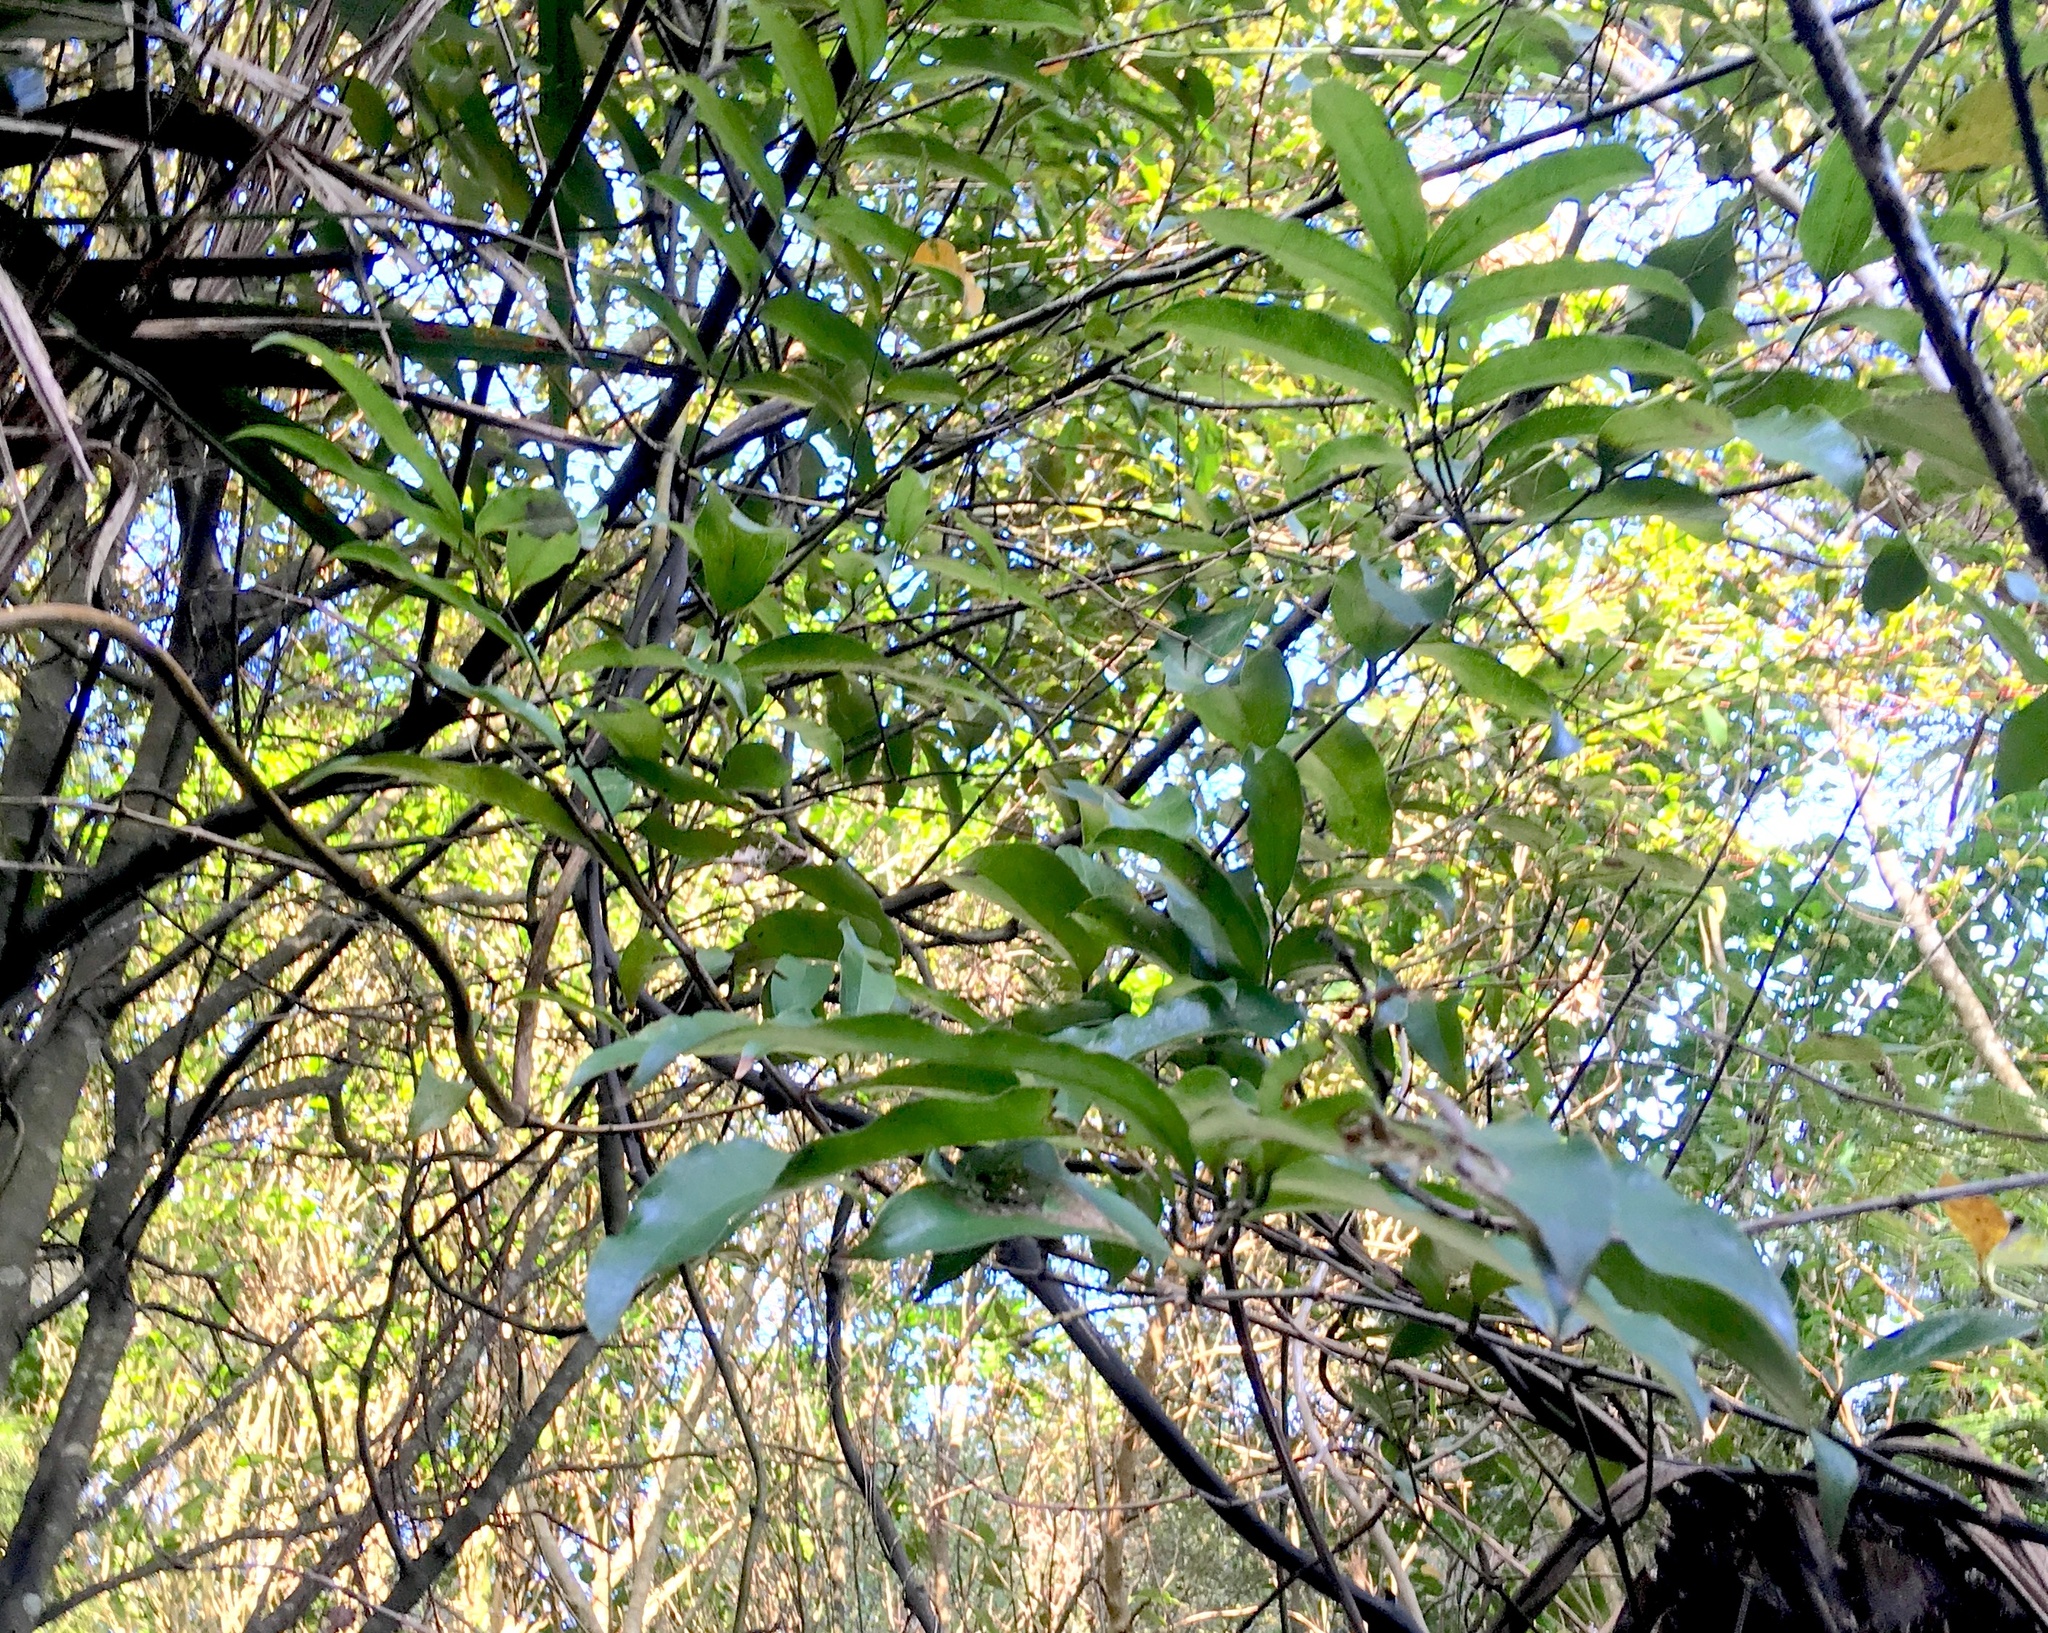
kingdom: Plantae
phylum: Tracheophyta
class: Liliopsida
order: Liliales
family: Ripogonaceae
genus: Ripogonum
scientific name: Ripogonum scandens
